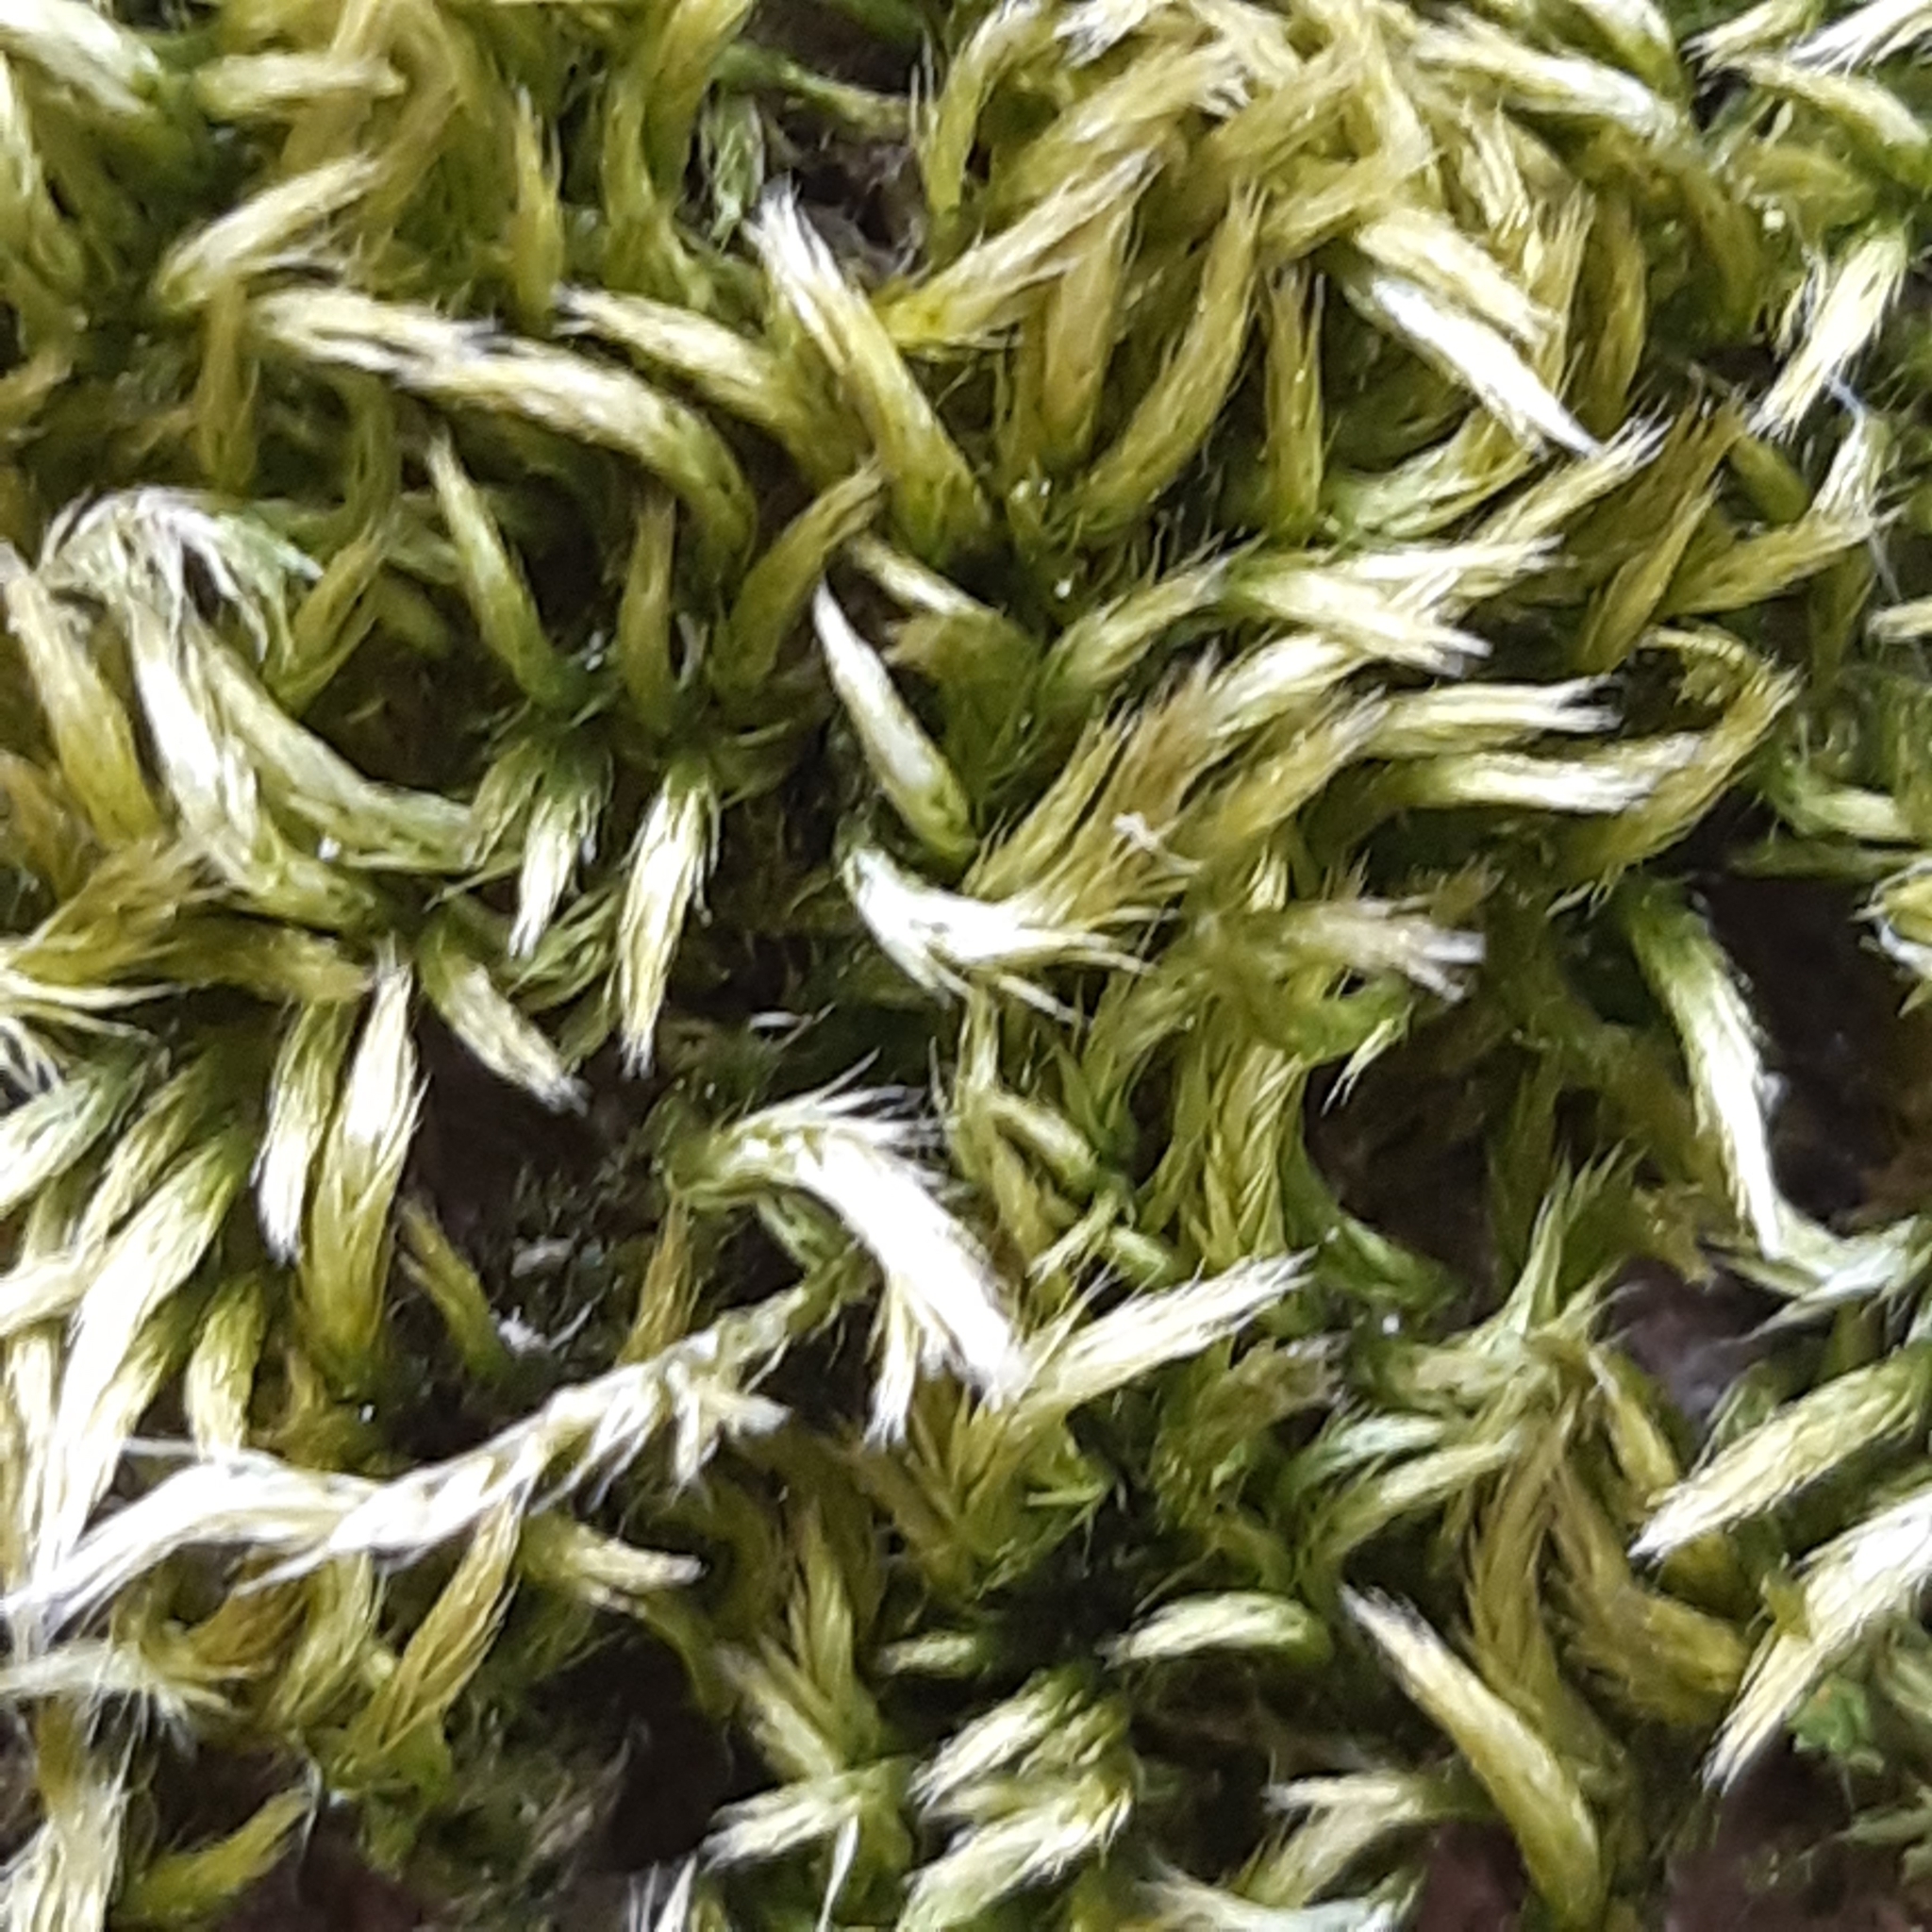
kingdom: Plantae
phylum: Bryophyta
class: Bryopsida
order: Hypnales
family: Brachytheciaceae
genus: Homalothecium
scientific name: Homalothecium sericeum
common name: Silky wall feather-moss
